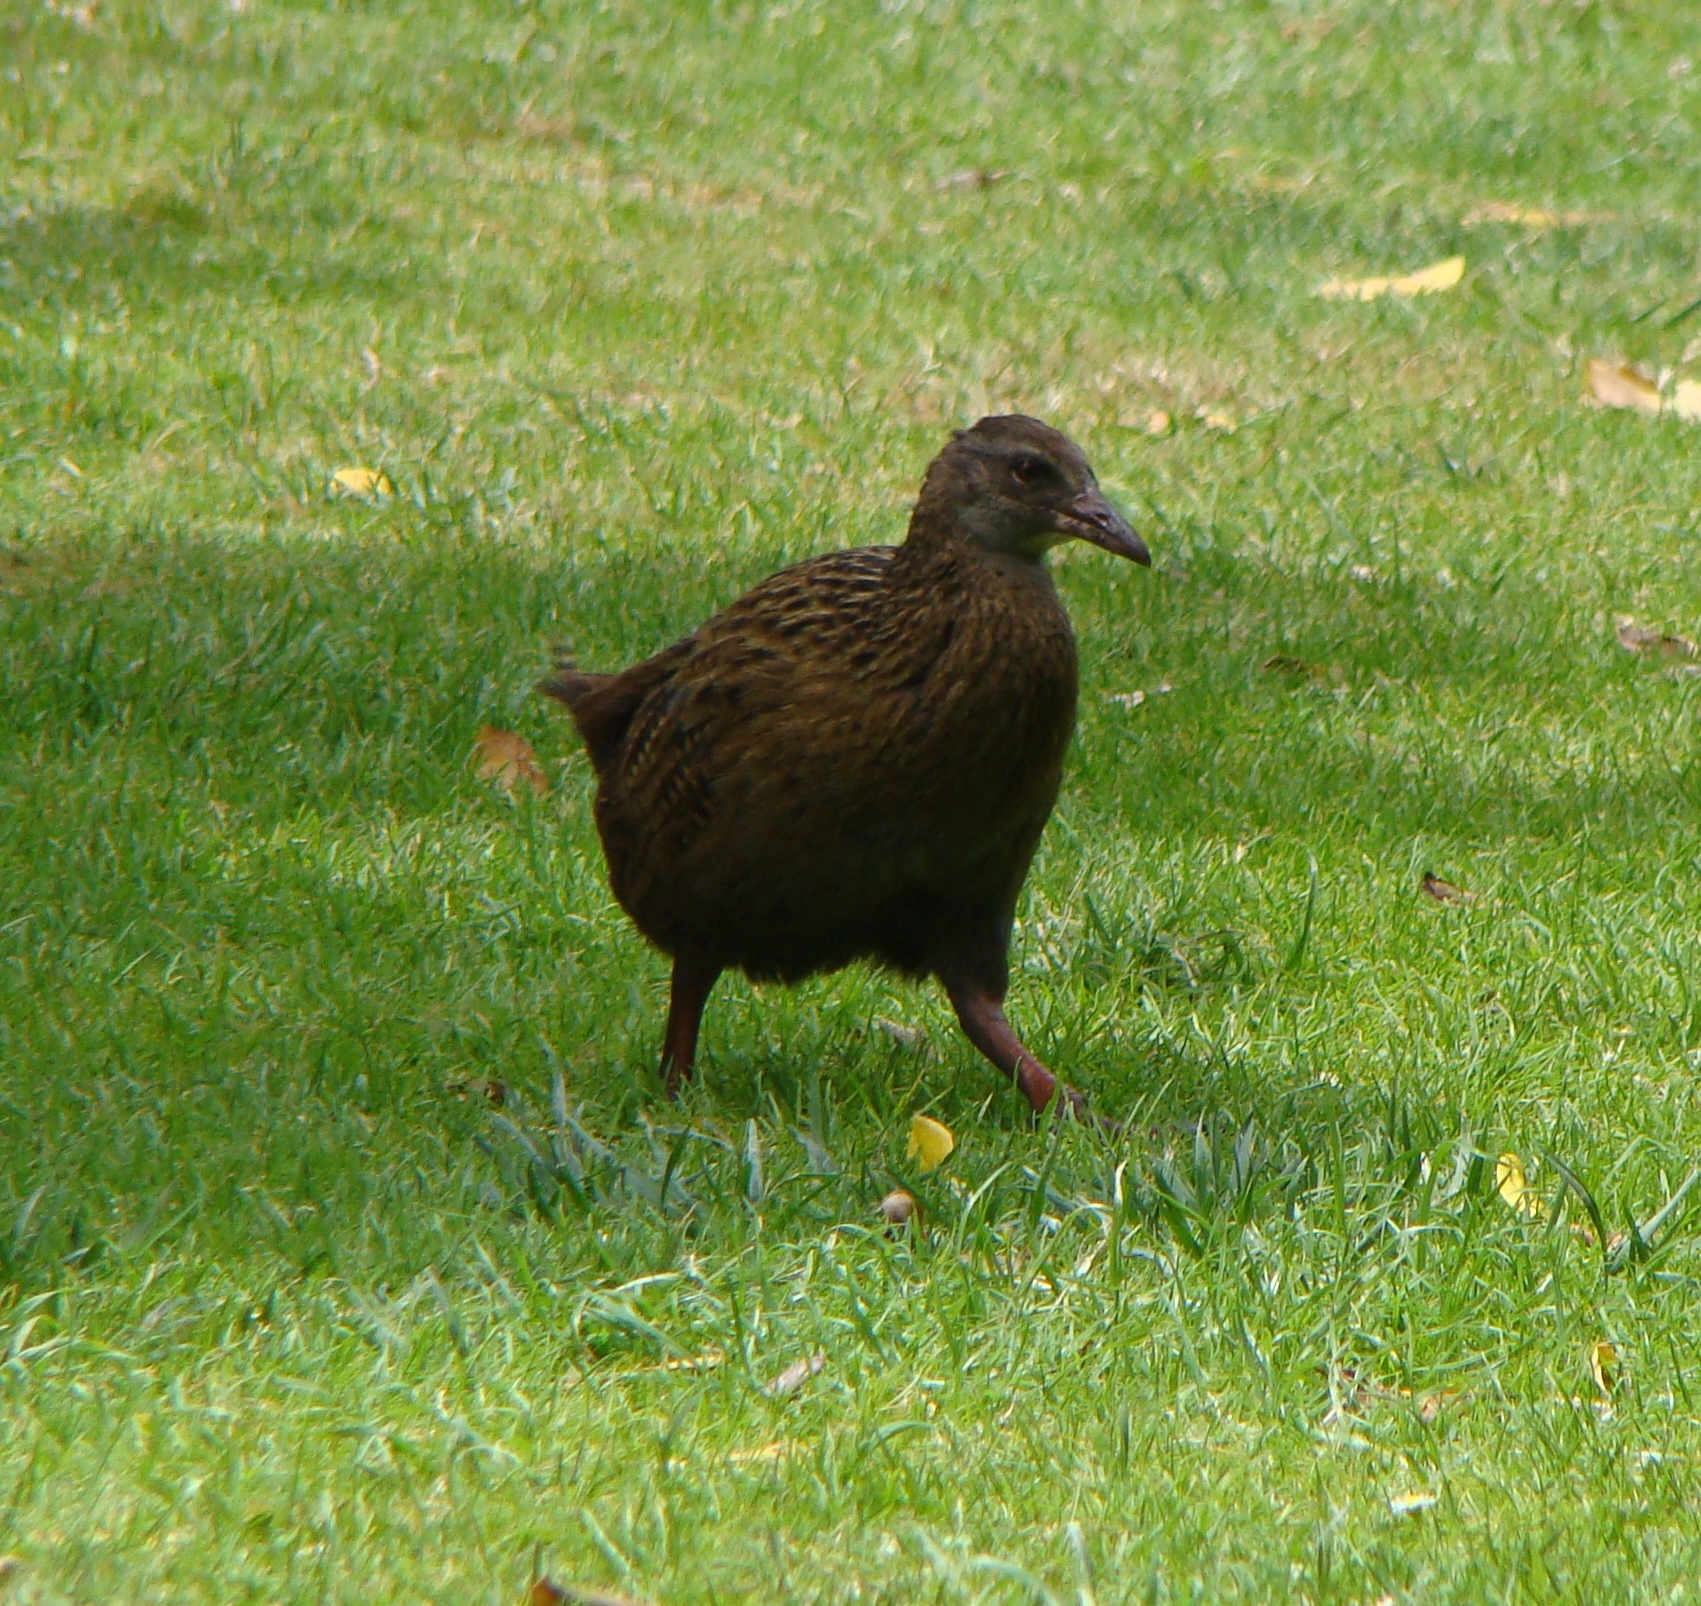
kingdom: Animalia
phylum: Chordata
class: Aves
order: Gruiformes
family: Rallidae
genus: Gallirallus
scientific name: Gallirallus australis
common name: Weka
